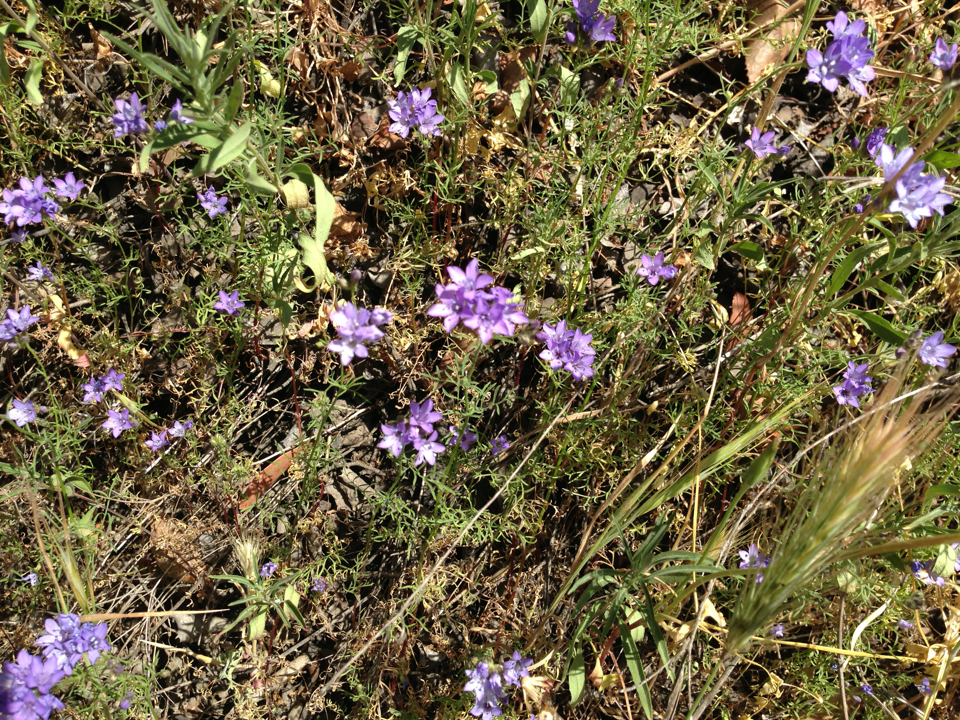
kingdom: Plantae
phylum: Tracheophyta
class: Magnoliopsida
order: Ericales
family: Polemoniaceae
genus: Gilia
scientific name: Gilia achilleifolia
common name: California gily-flower
